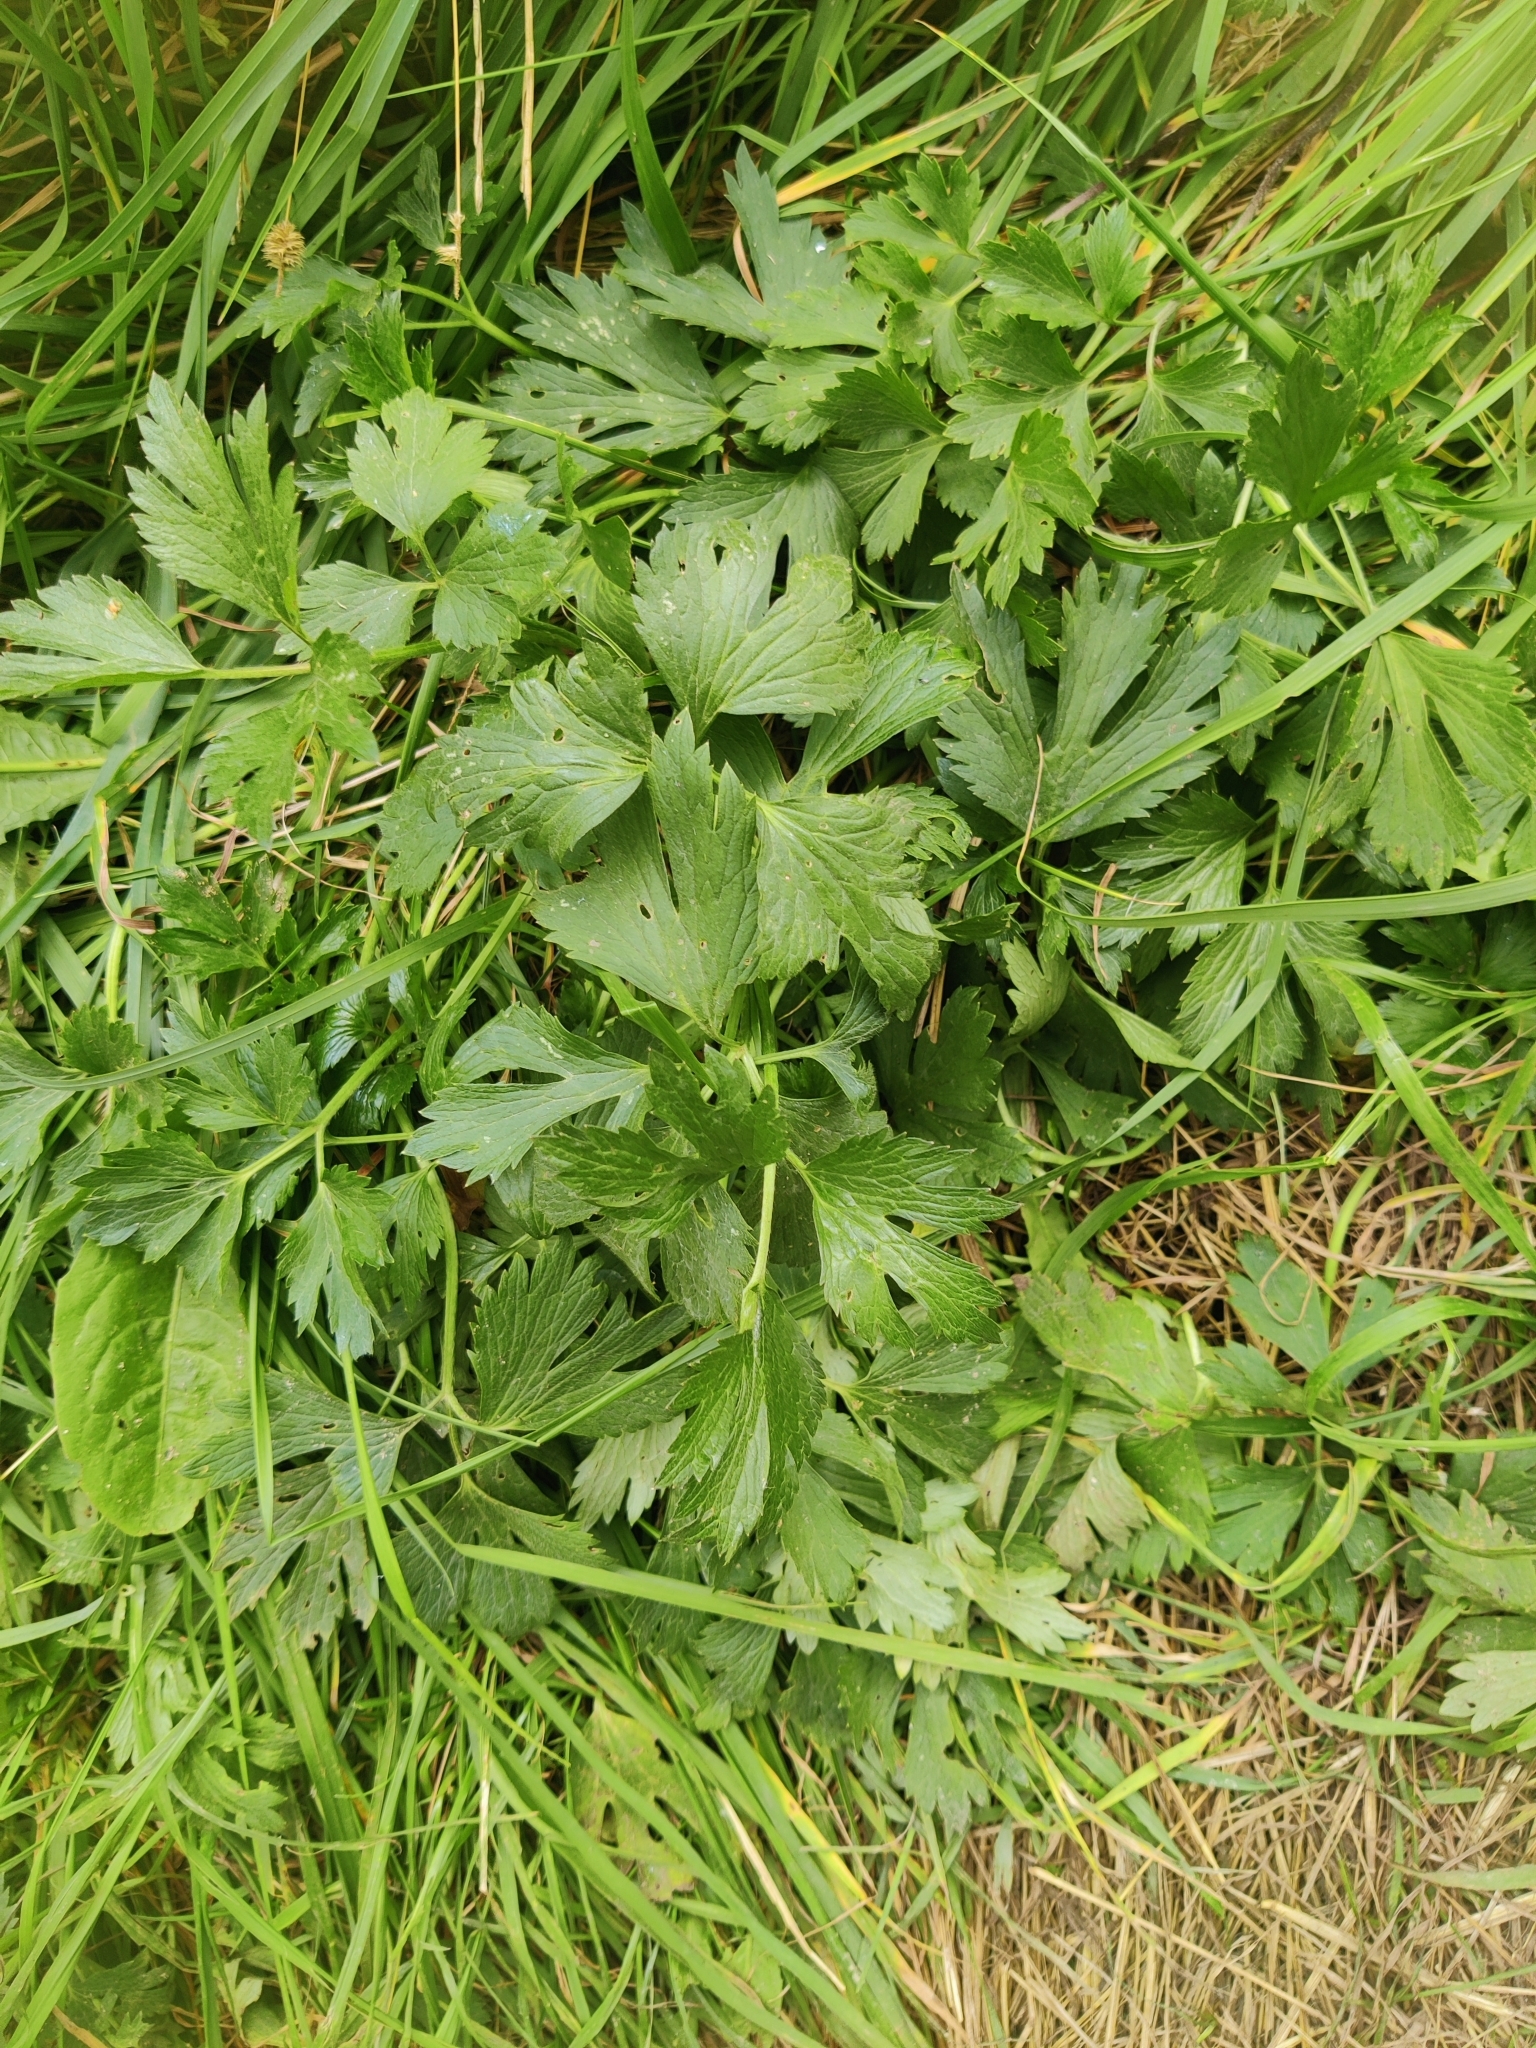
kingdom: Plantae
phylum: Tracheophyta
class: Magnoliopsida
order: Ranunculales
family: Ranunculaceae
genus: Ranunculus
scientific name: Ranunculus repens
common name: Creeping buttercup
